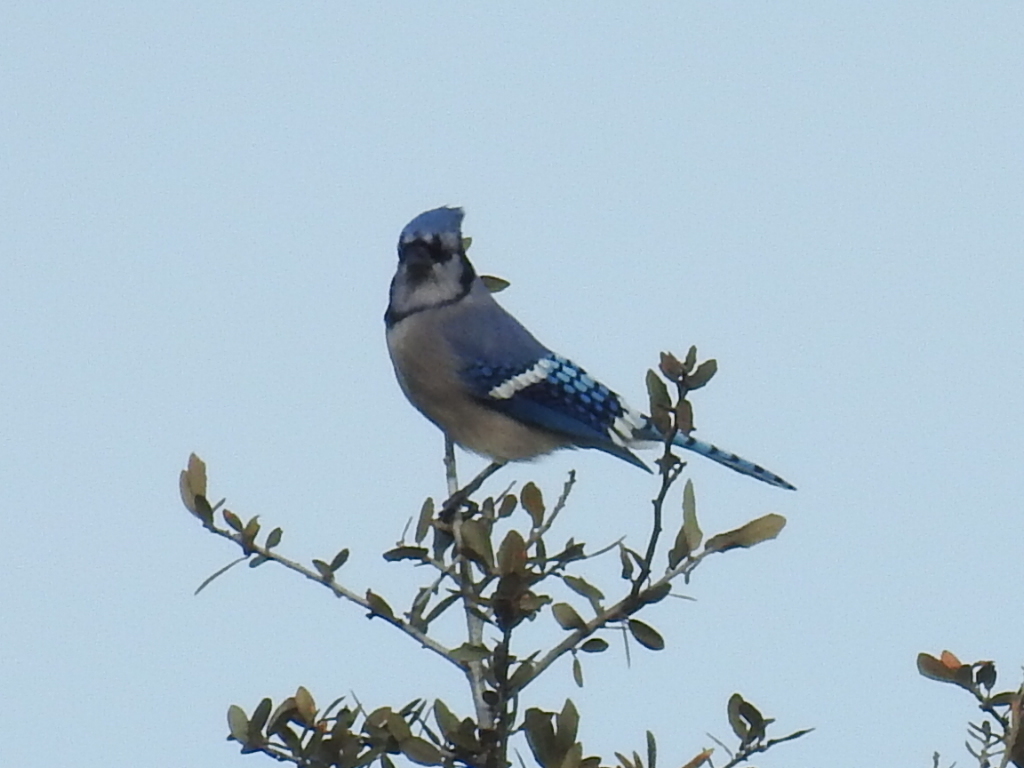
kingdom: Animalia
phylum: Chordata
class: Aves
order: Passeriformes
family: Corvidae
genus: Cyanocitta
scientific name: Cyanocitta cristata
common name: Blue jay
